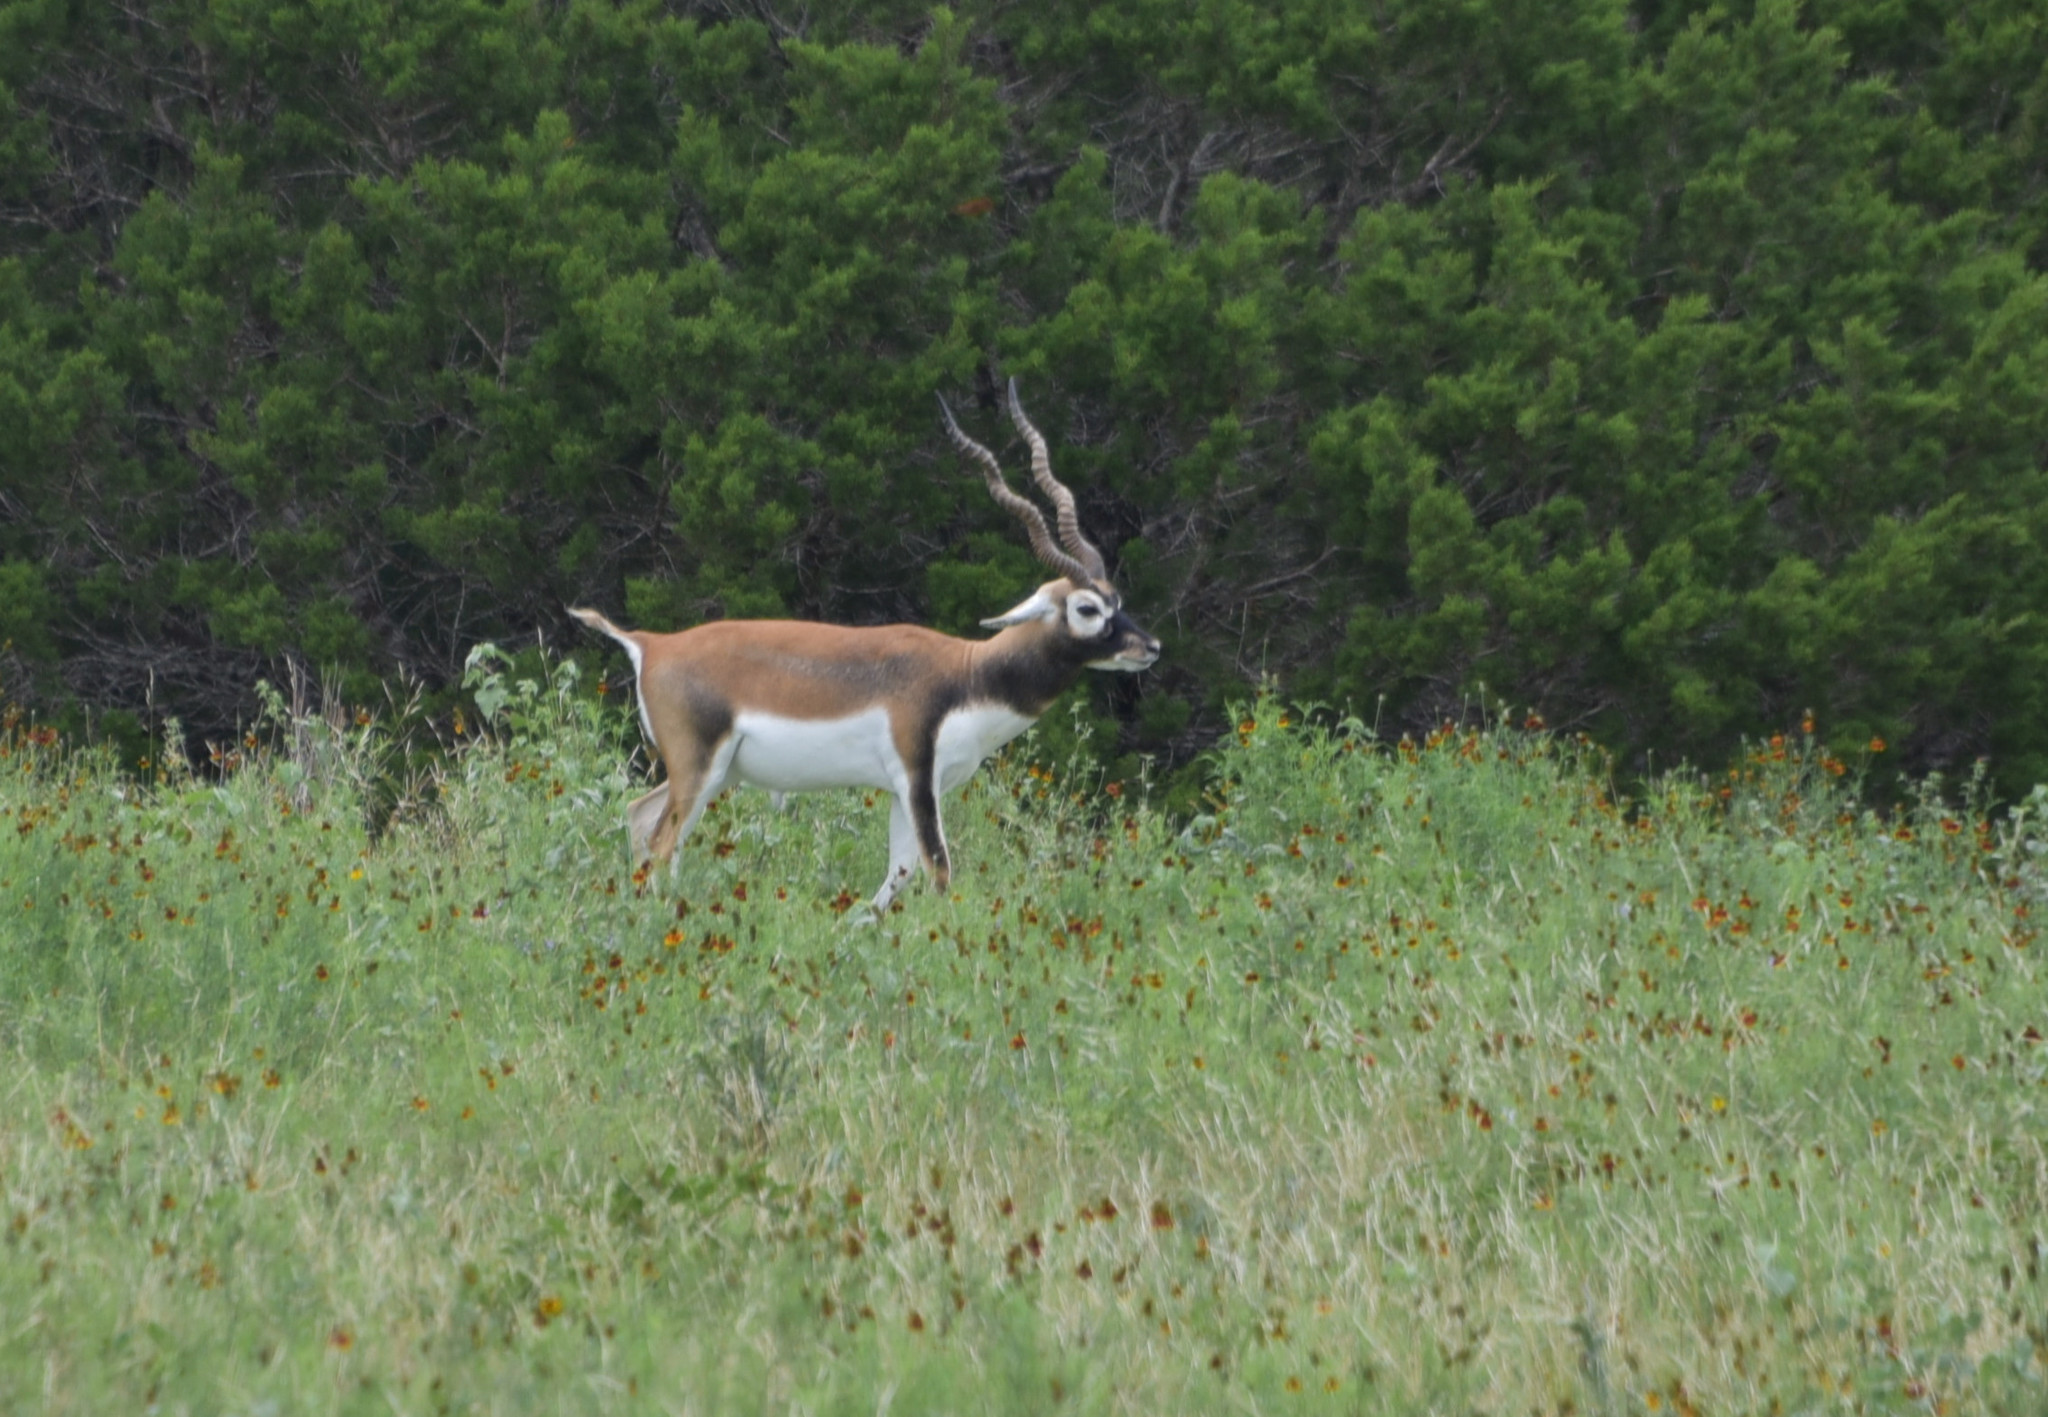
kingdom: Animalia
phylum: Chordata
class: Mammalia
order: Artiodactyla
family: Bovidae
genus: Antilope
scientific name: Antilope cervicapra
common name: Blackbuck
